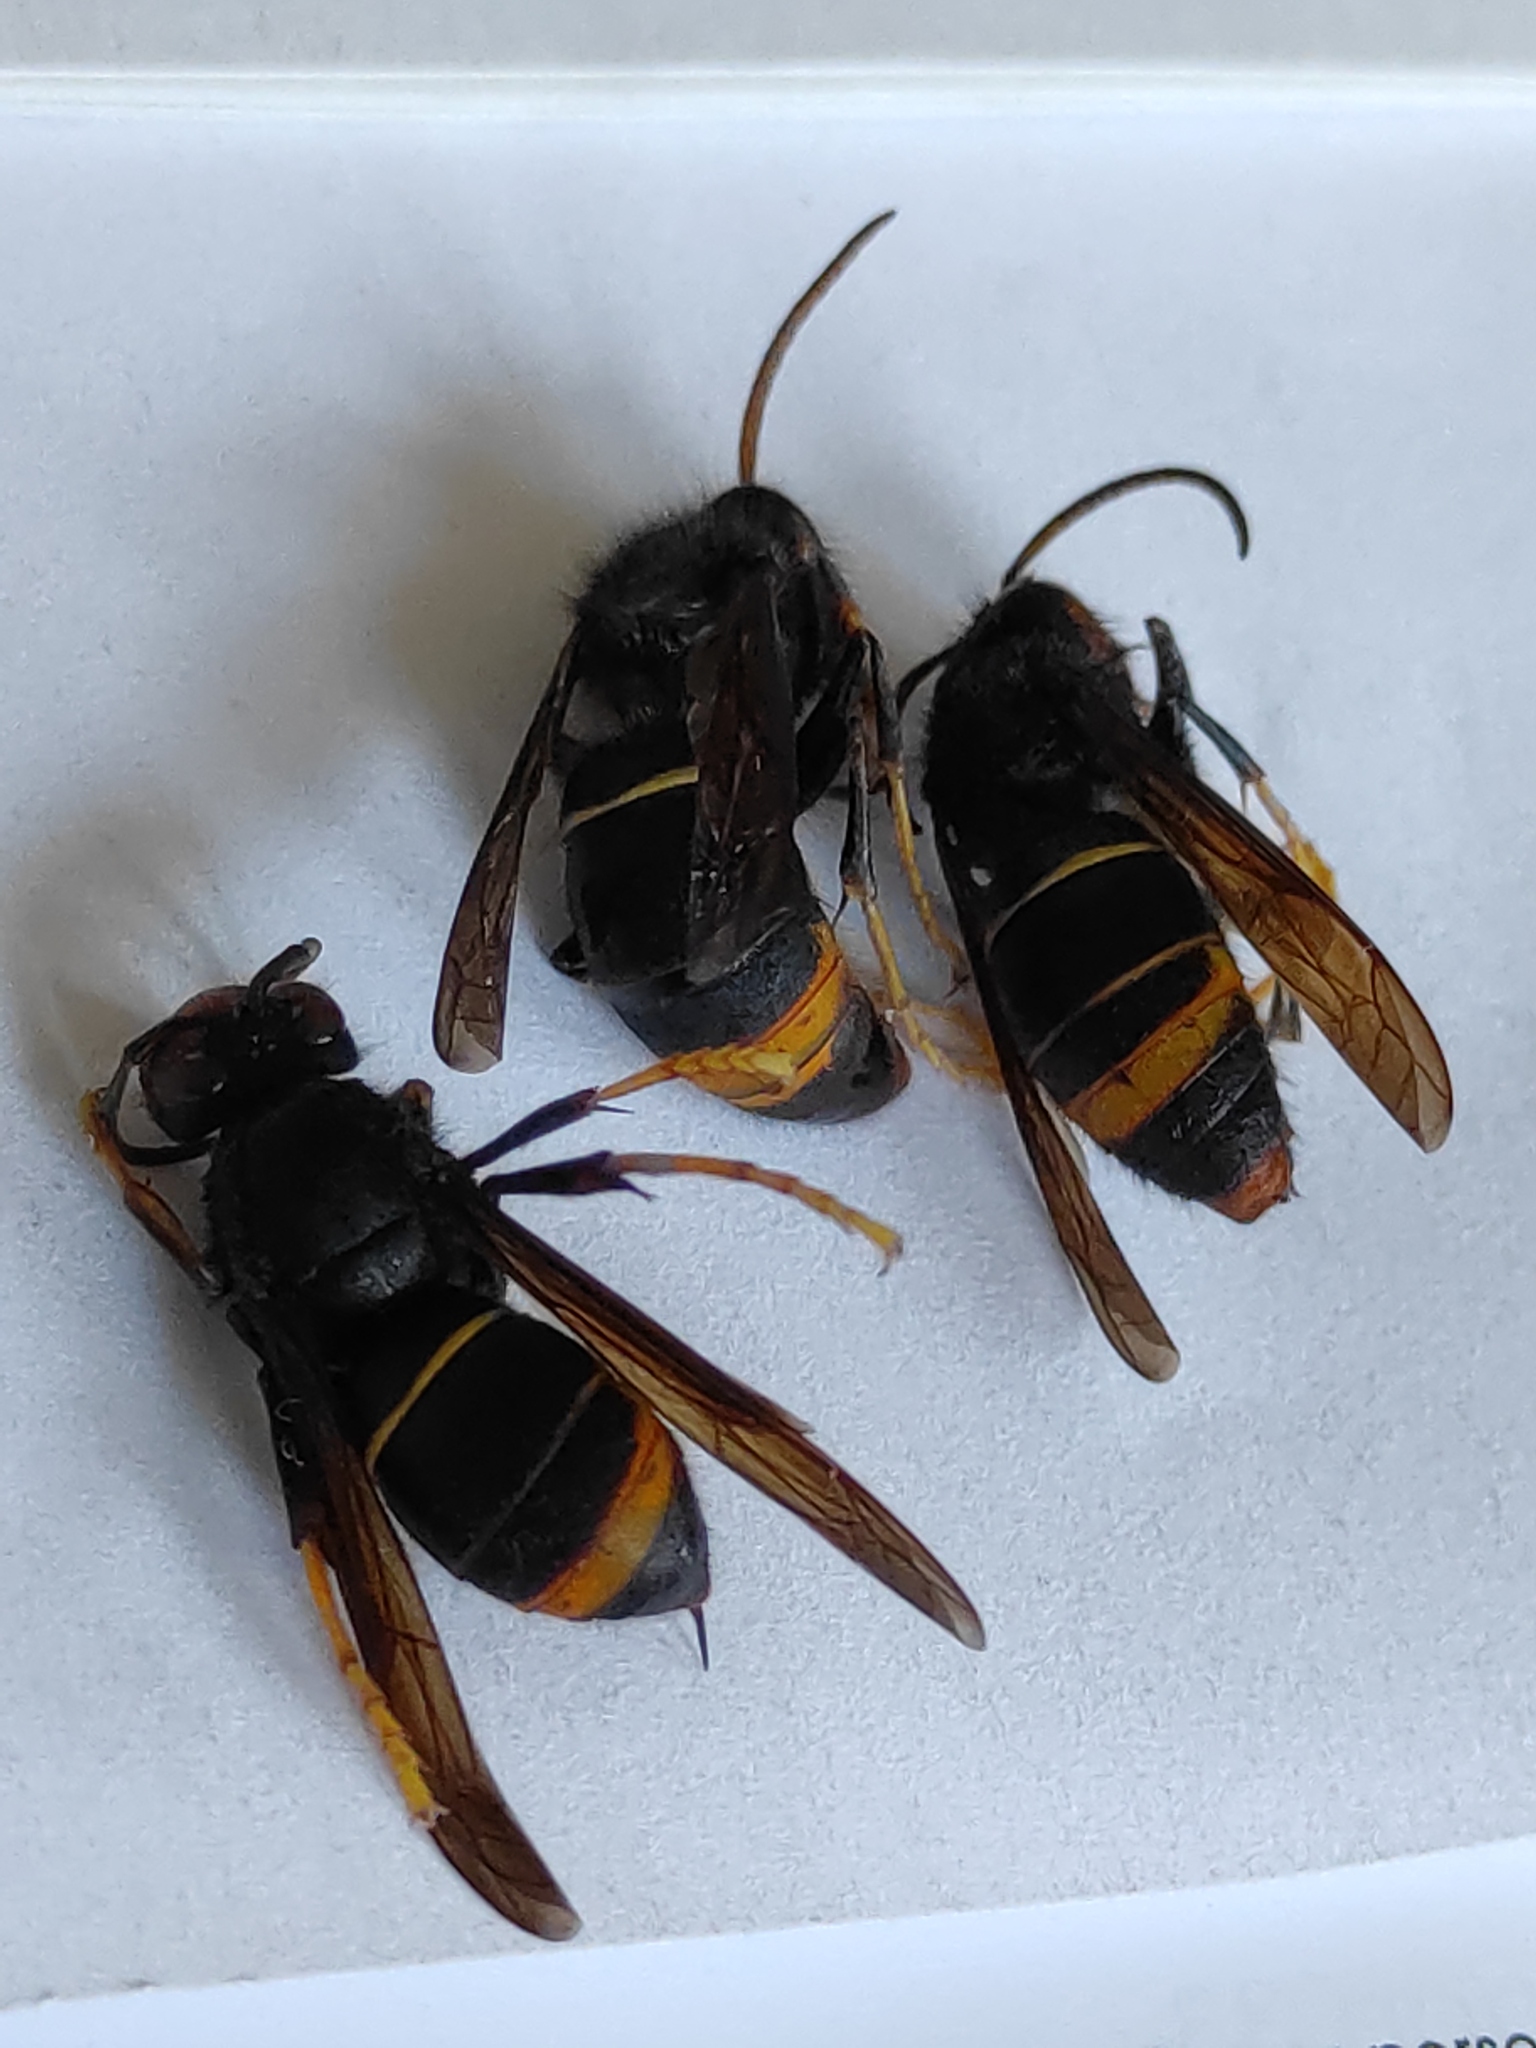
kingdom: Animalia
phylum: Arthropoda
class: Insecta
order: Hymenoptera
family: Vespidae
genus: Vespa
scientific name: Vespa velutina
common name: Asian hornet
